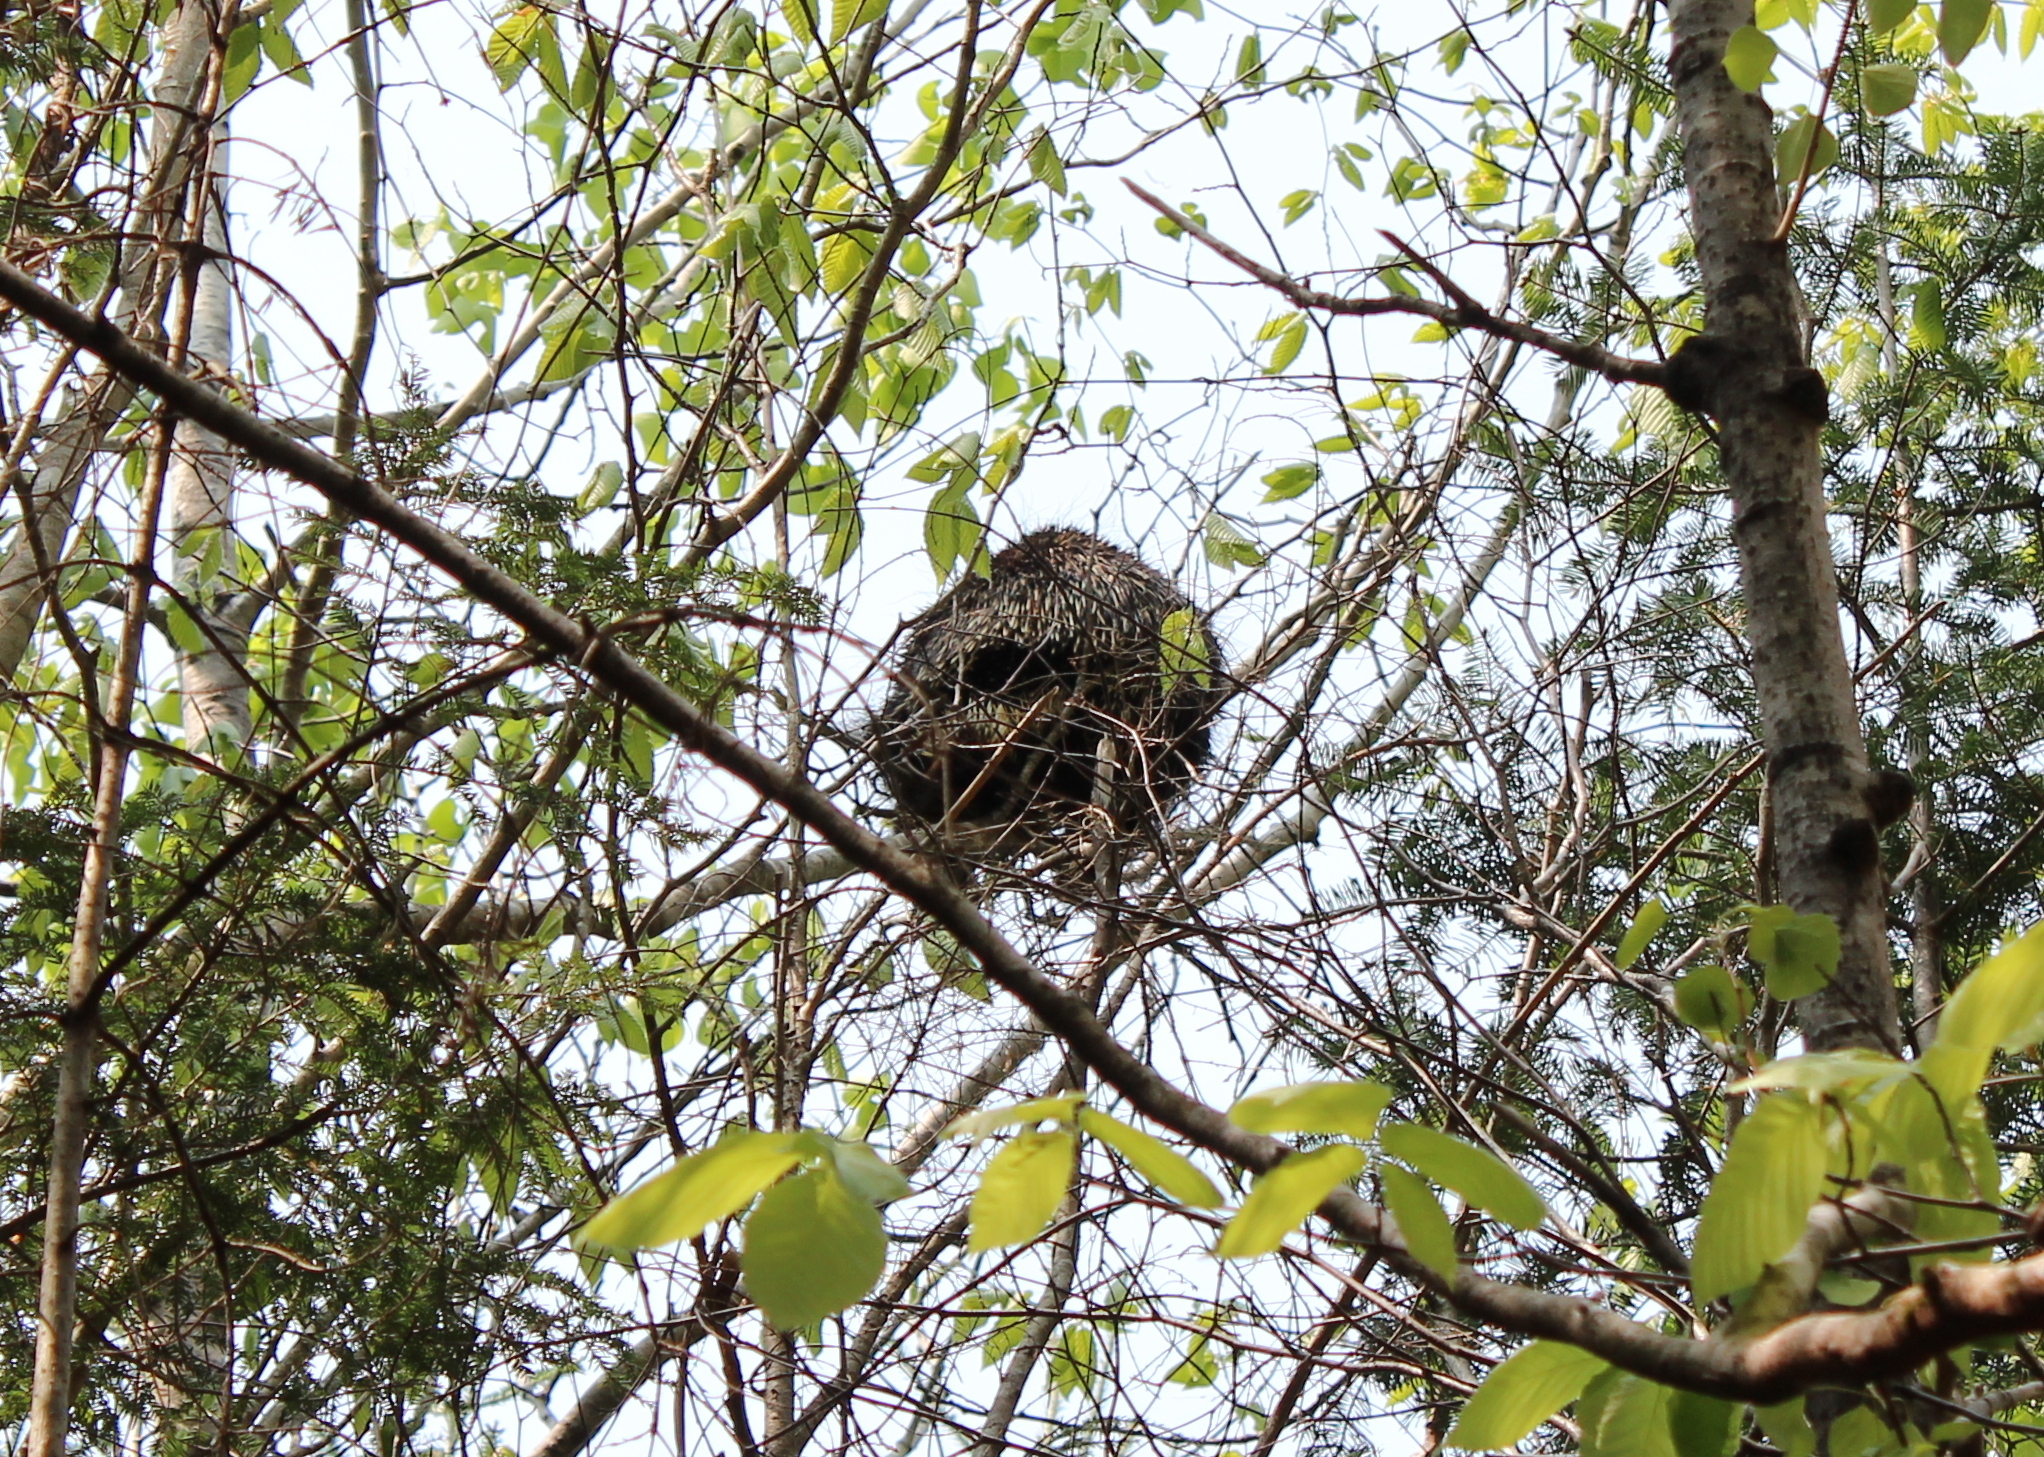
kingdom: Animalia
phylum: Chordata
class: Mammalia
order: Rodentia
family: Erethizontidae
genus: Erethizon
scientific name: Erethizon dorsatus
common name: North american porcupine
